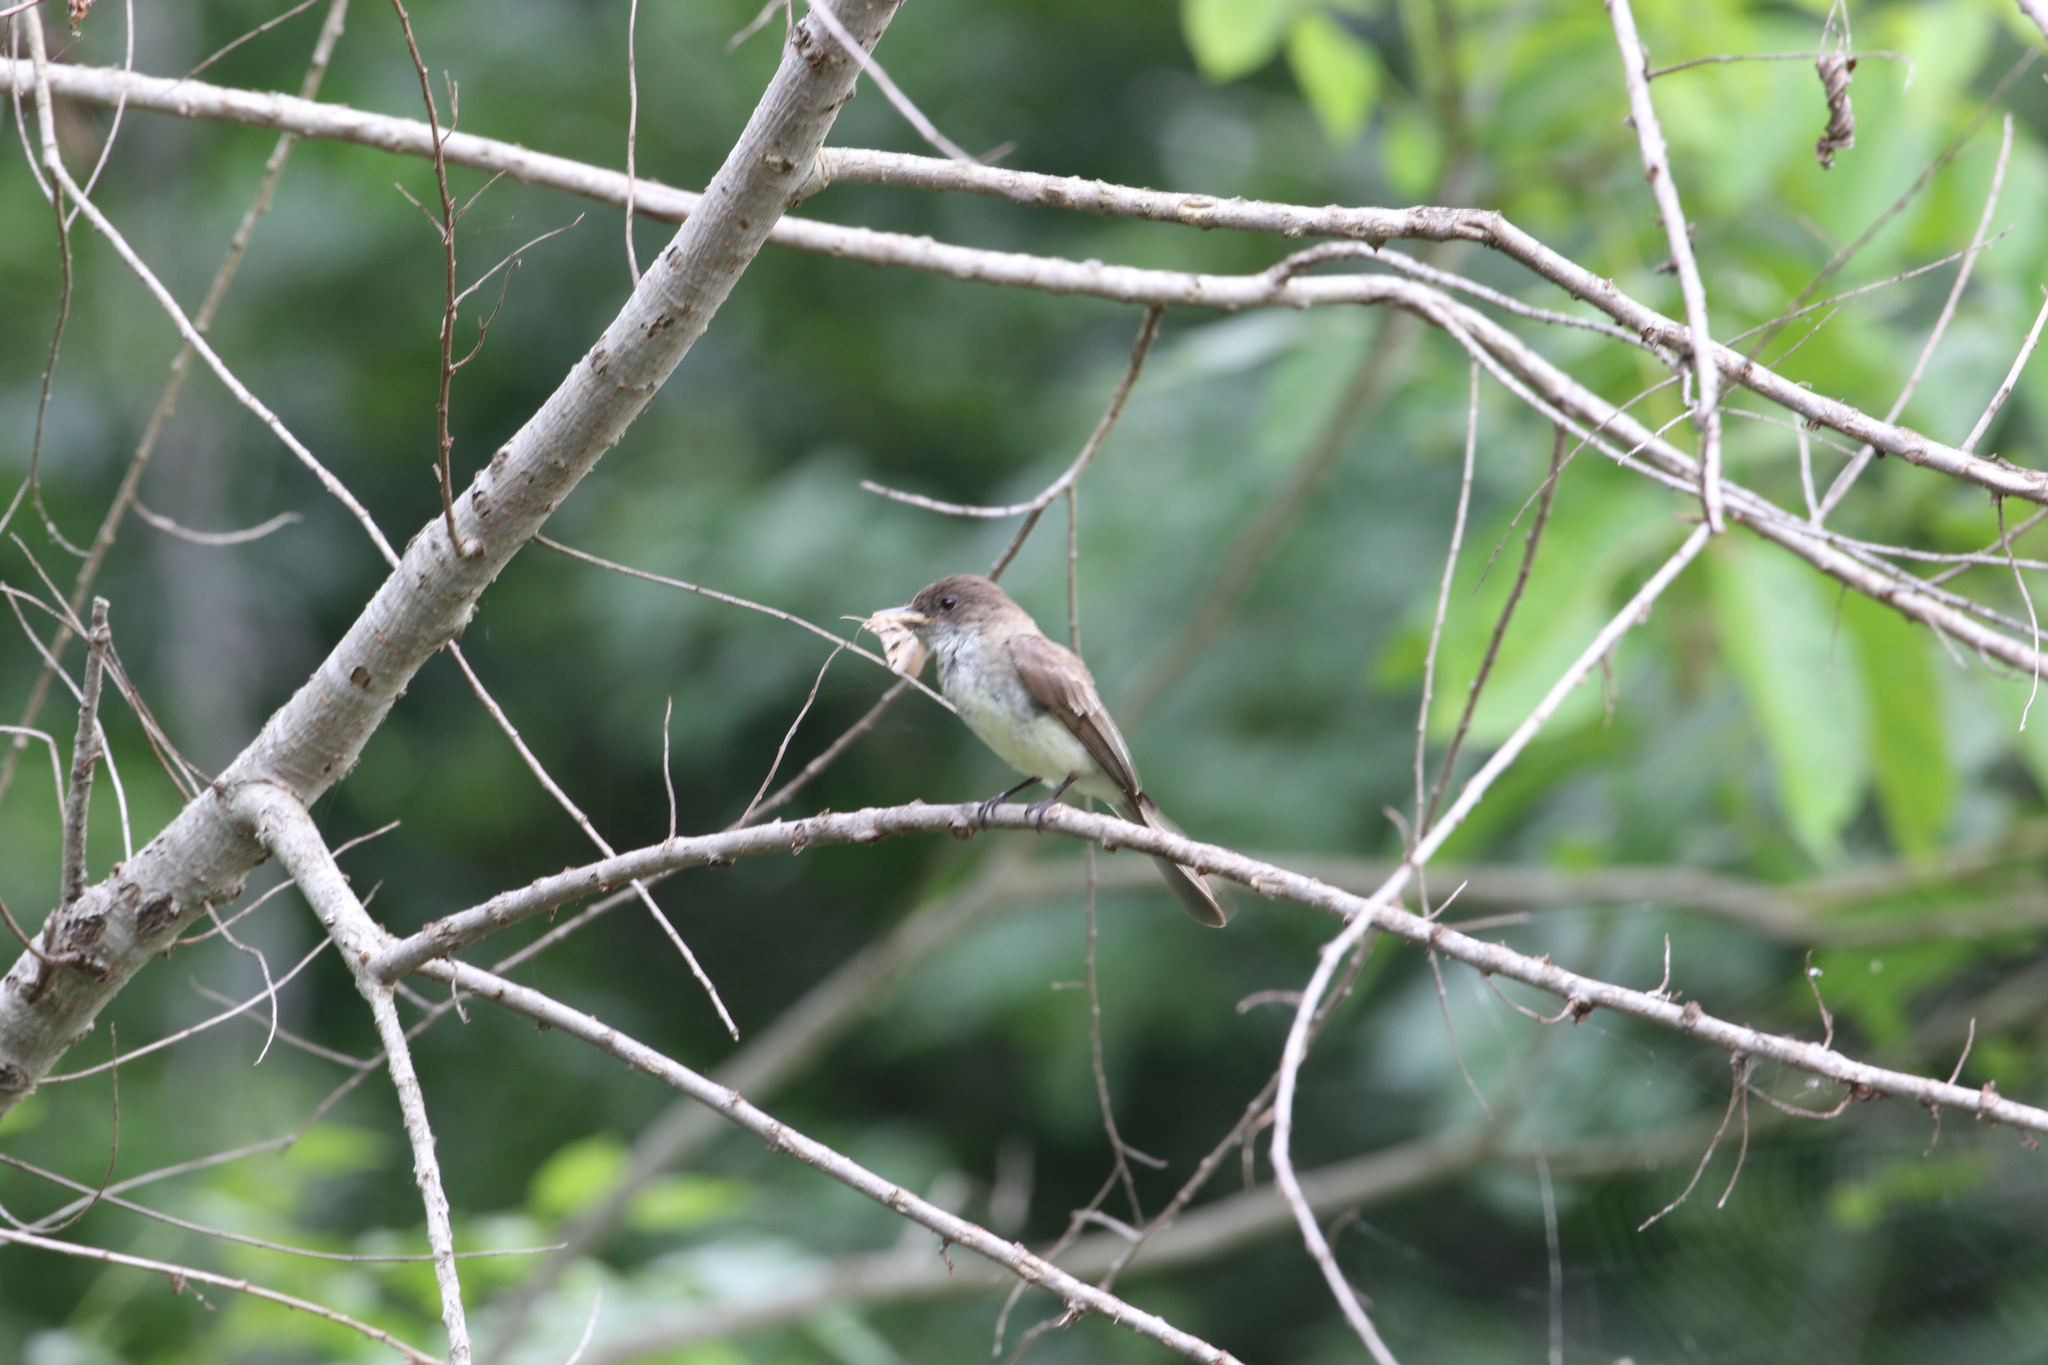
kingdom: Animalia
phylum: Chordata
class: Aves
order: Passeriformes
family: Tyrannidae
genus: Sayornis
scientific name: Sayornis phoebe
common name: Eastern phoebe
